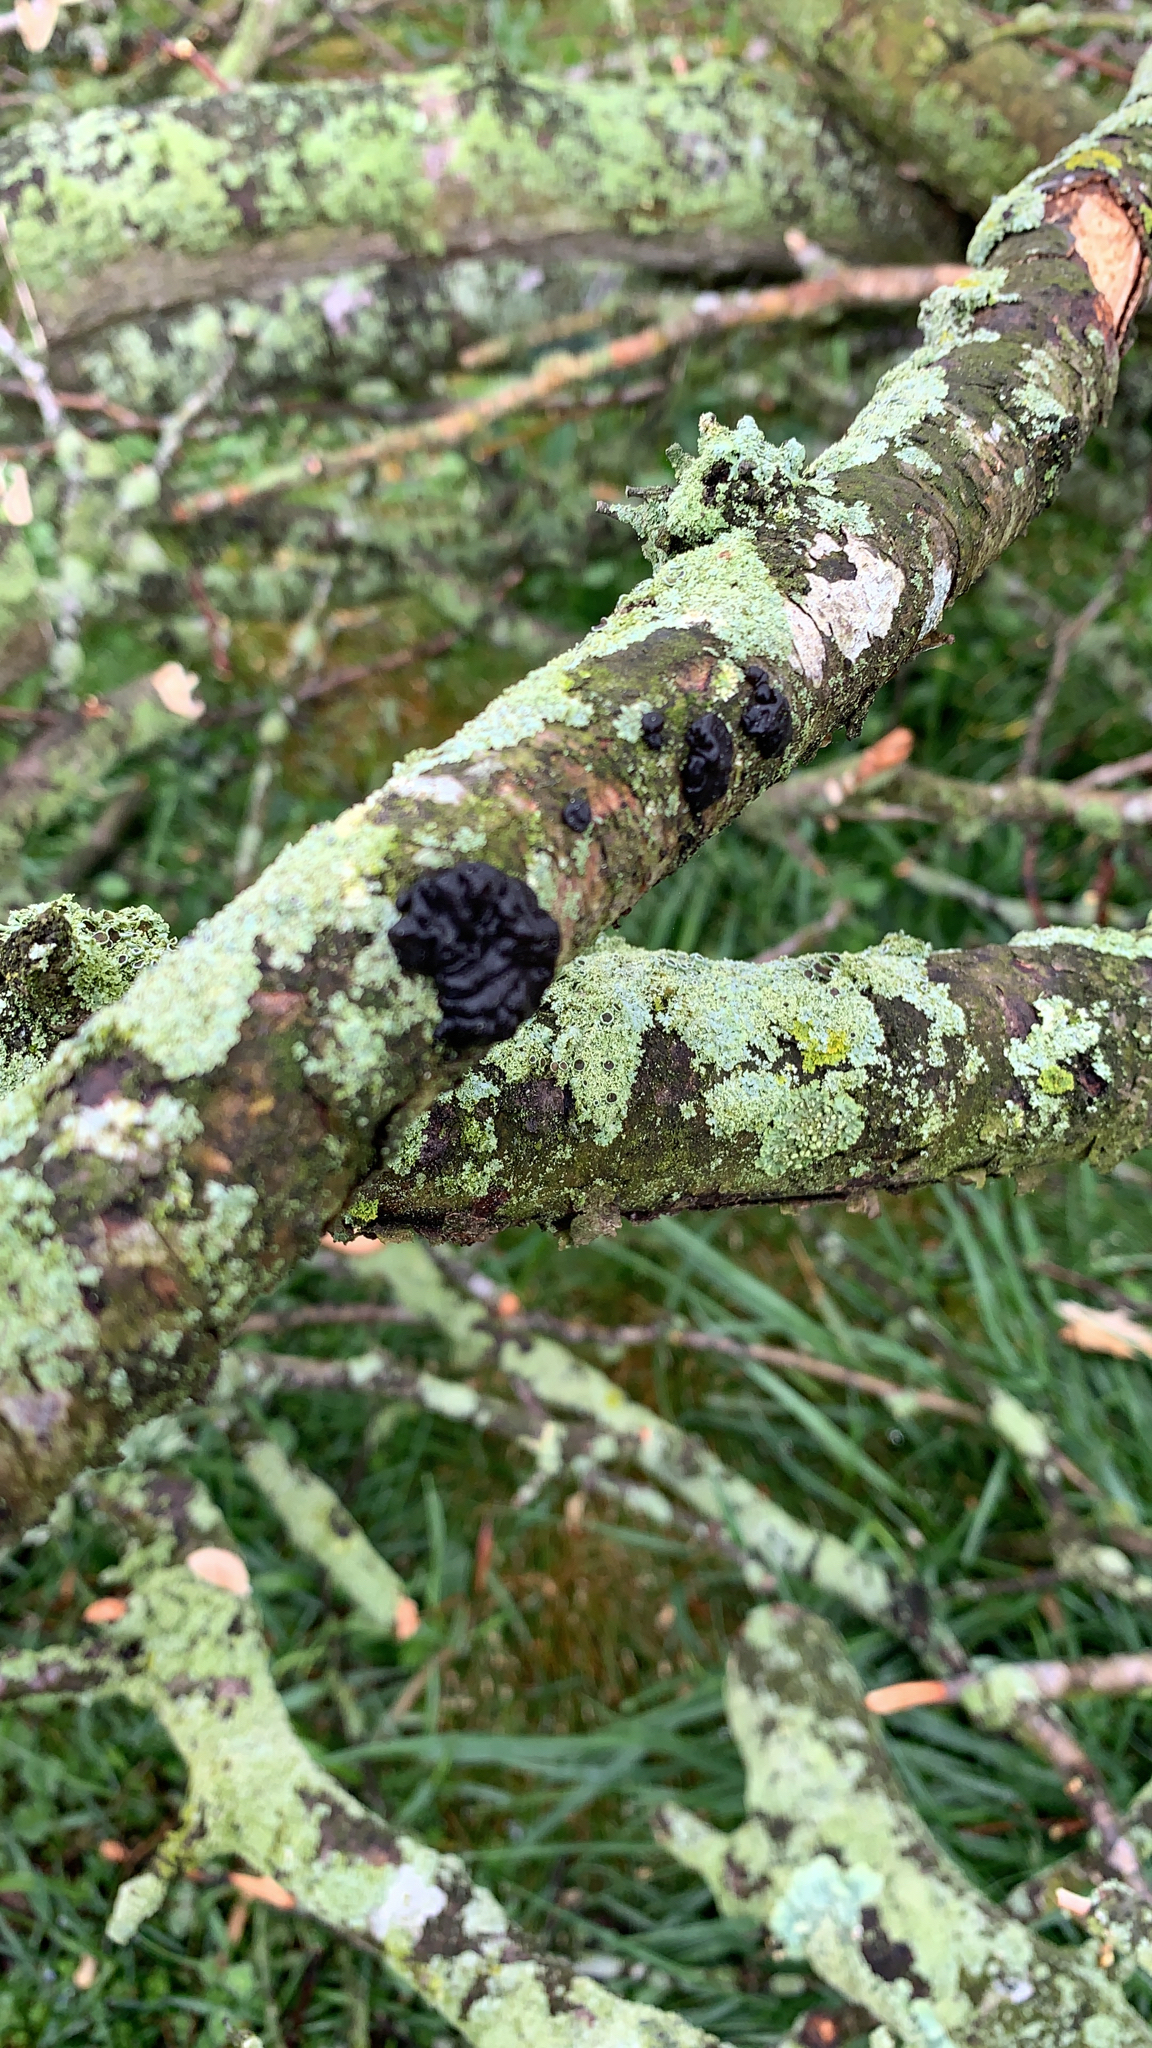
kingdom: Fungi
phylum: Basidiomycota
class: Agaricomycetes
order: Auriculariales
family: Auriculariaceae
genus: Exidia
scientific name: Exidia glandulosa
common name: Witches' butter
